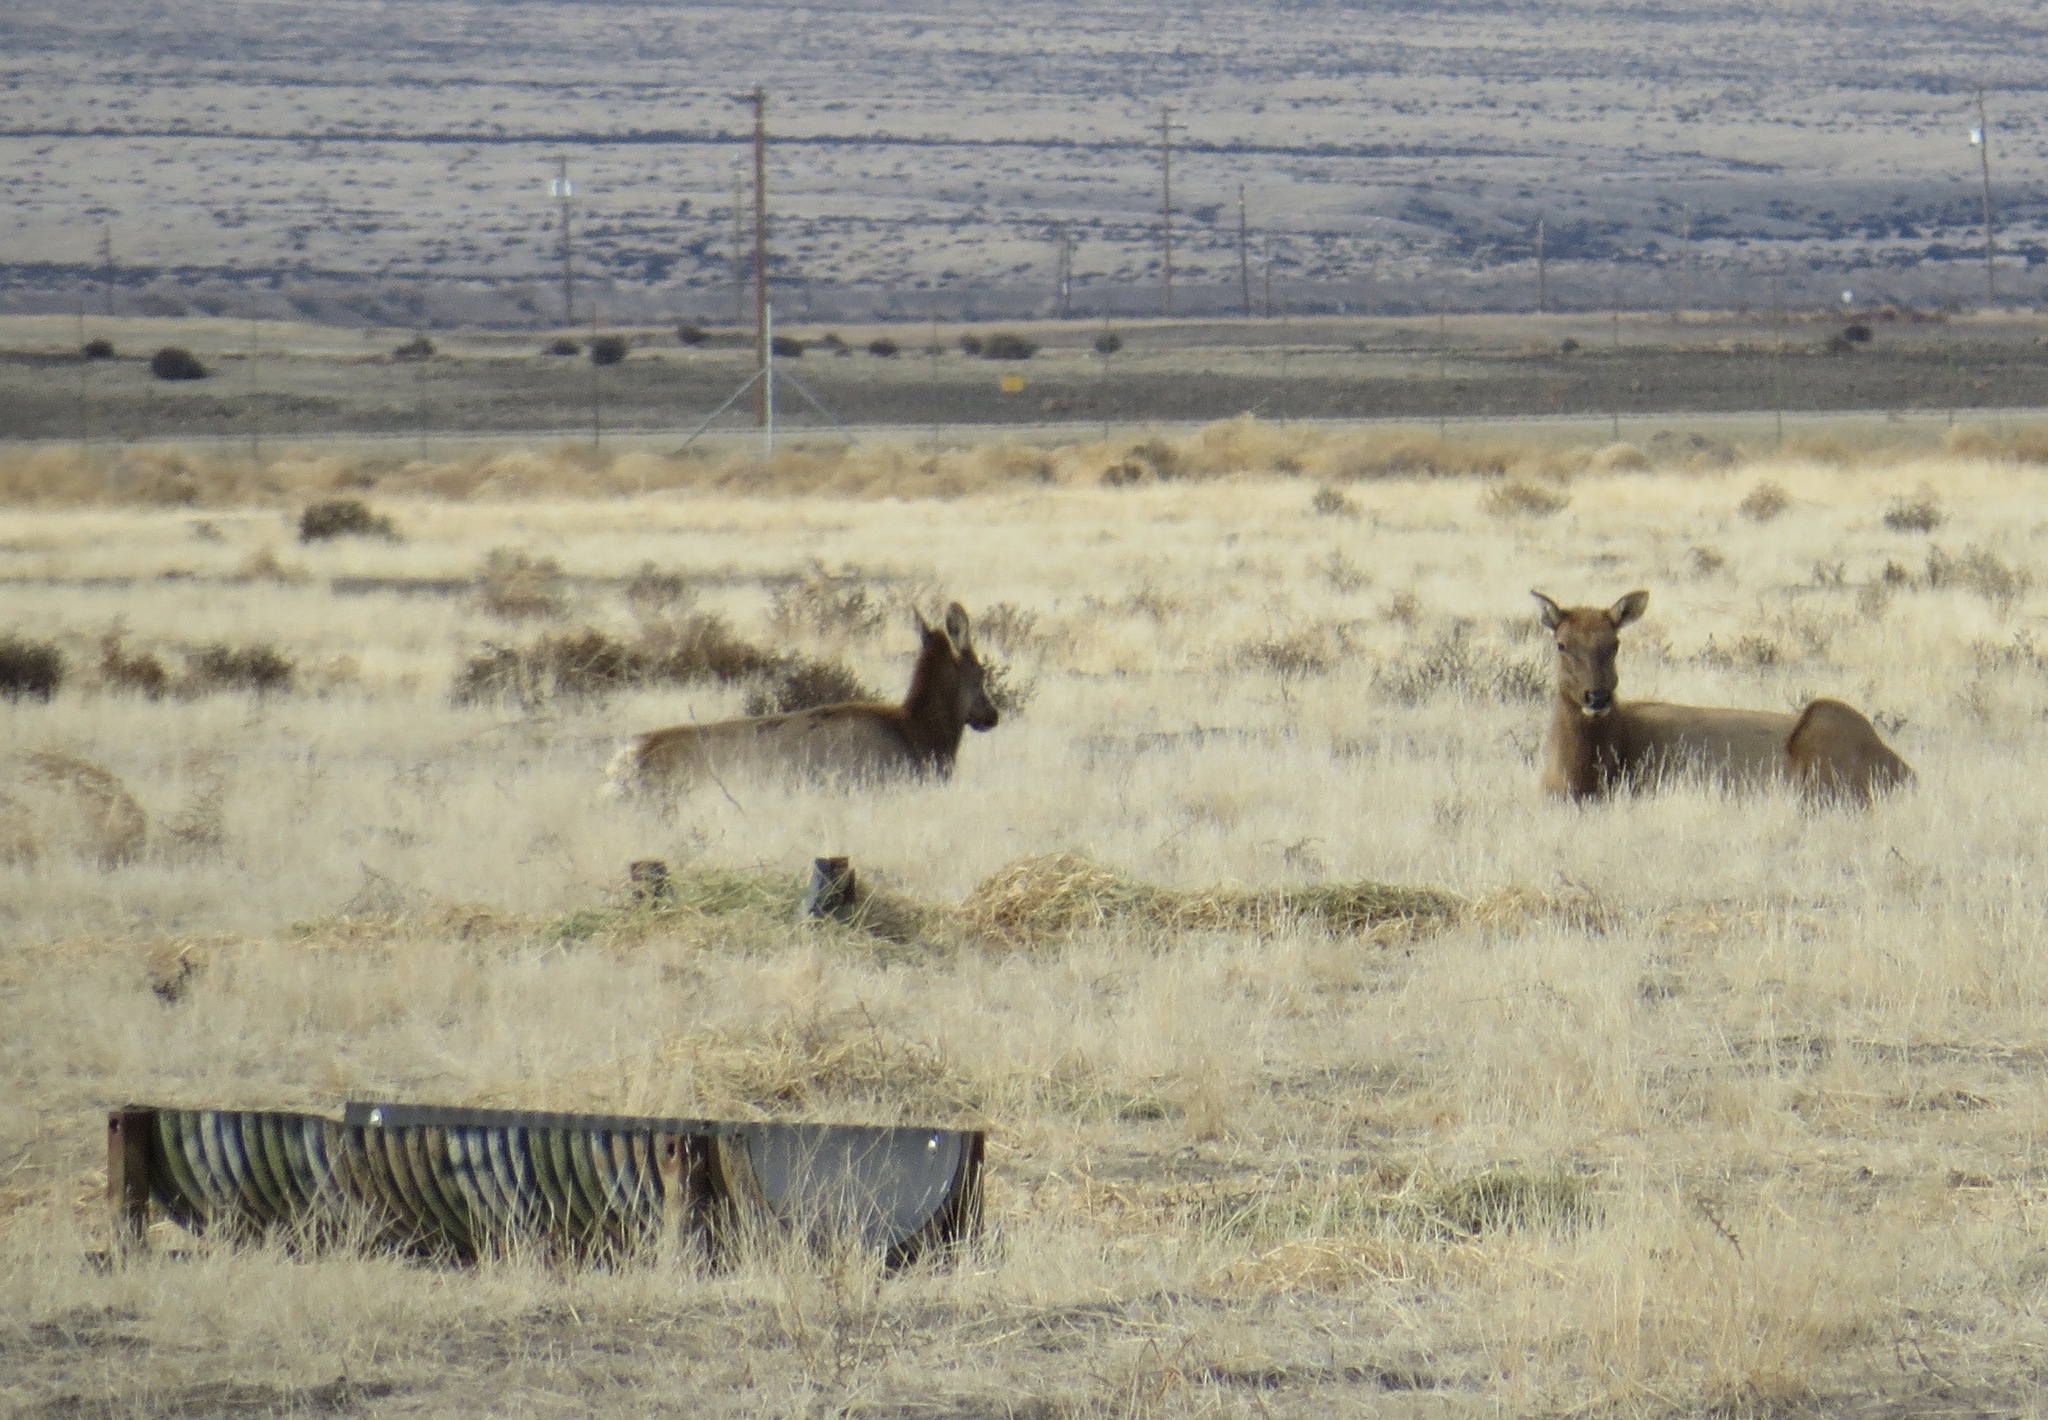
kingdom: Animalia
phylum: Chordata
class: Mammalia
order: Artiodactyla
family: Cervidae
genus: Cervus
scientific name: Cervus elaphus
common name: Red deer
